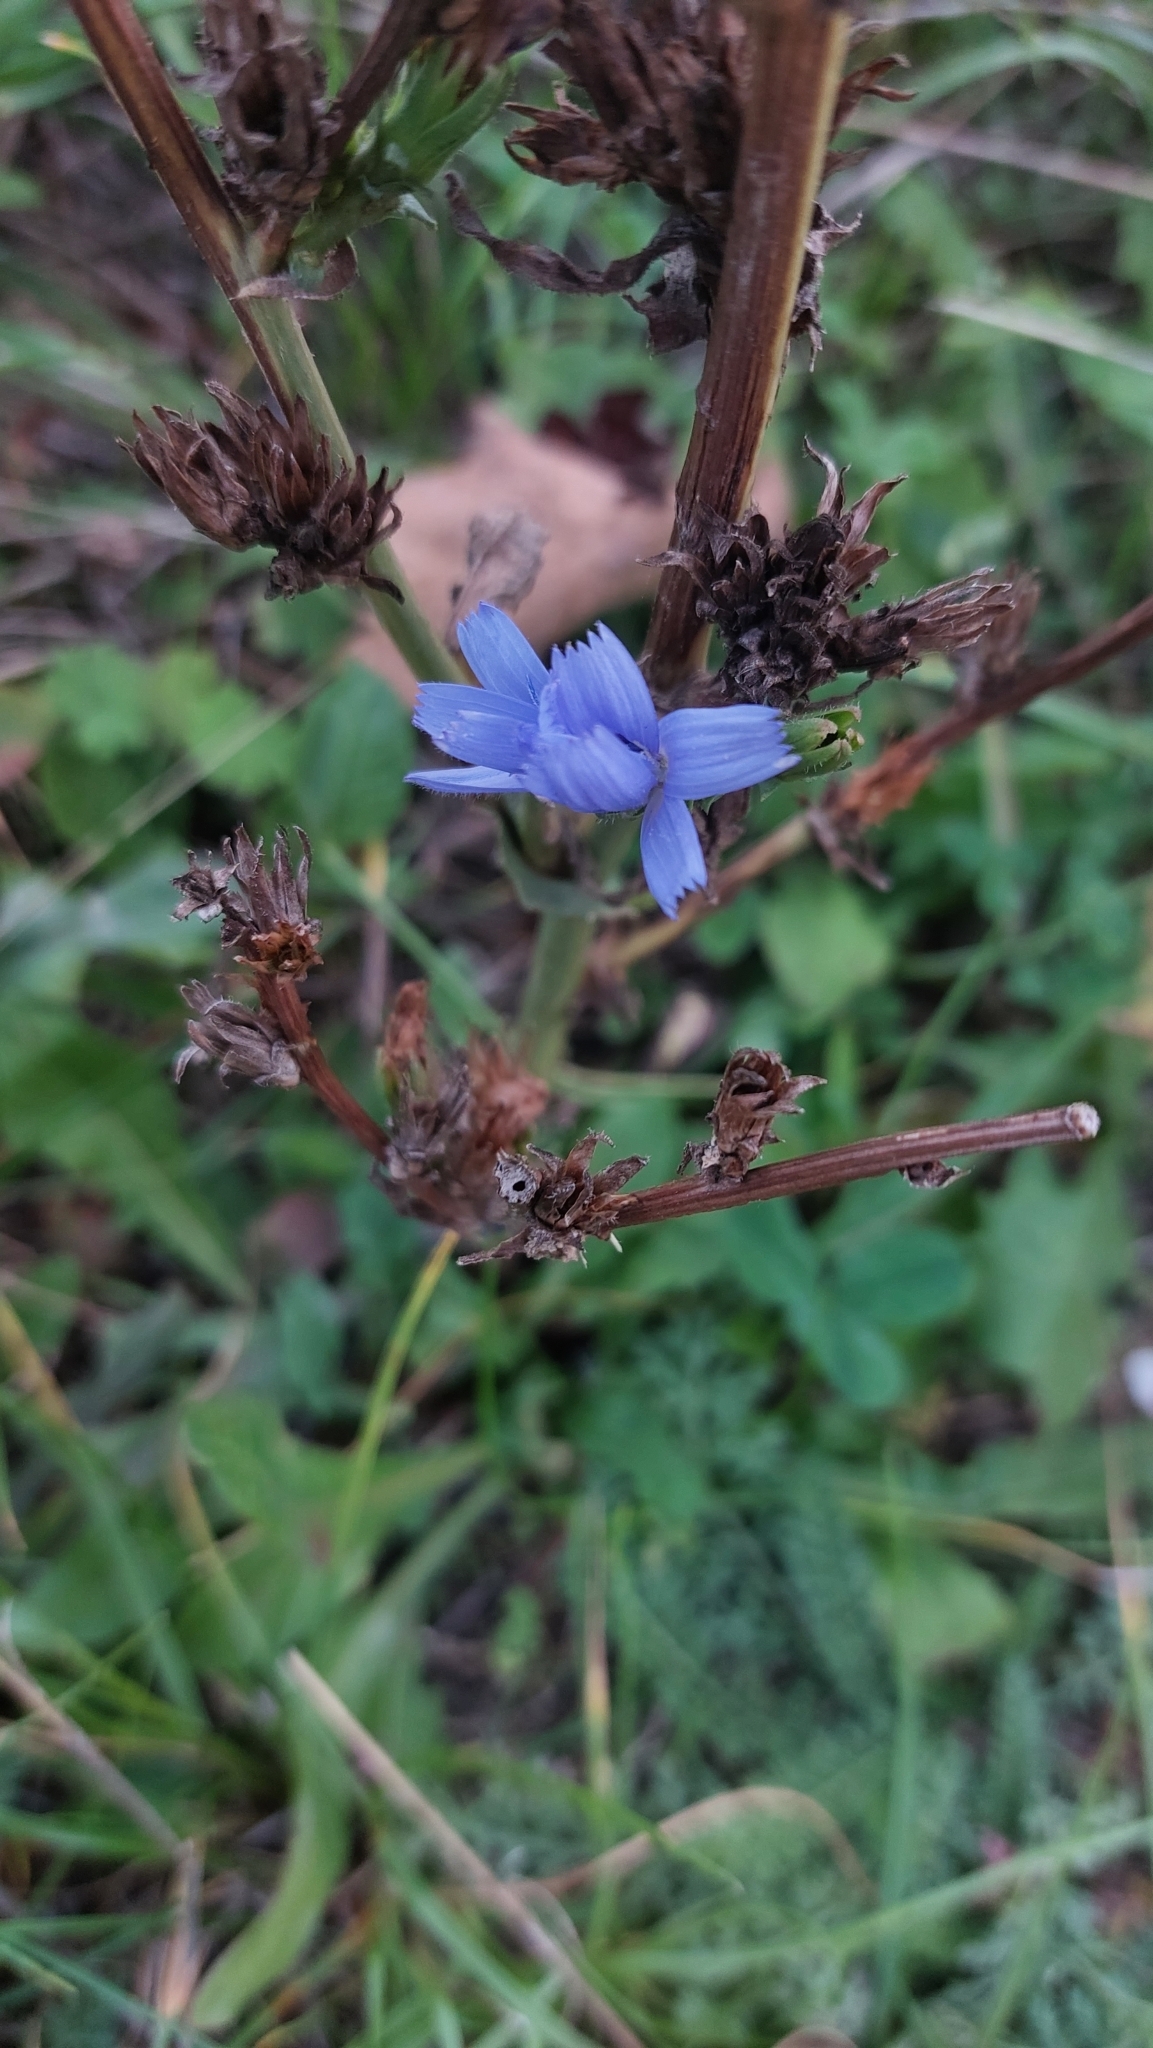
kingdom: Plantae
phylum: Tracheophyta
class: Magnoliopsida
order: Asterales
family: Asteraceae
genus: Cichorium
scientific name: Cichorium intybus
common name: Chicory
